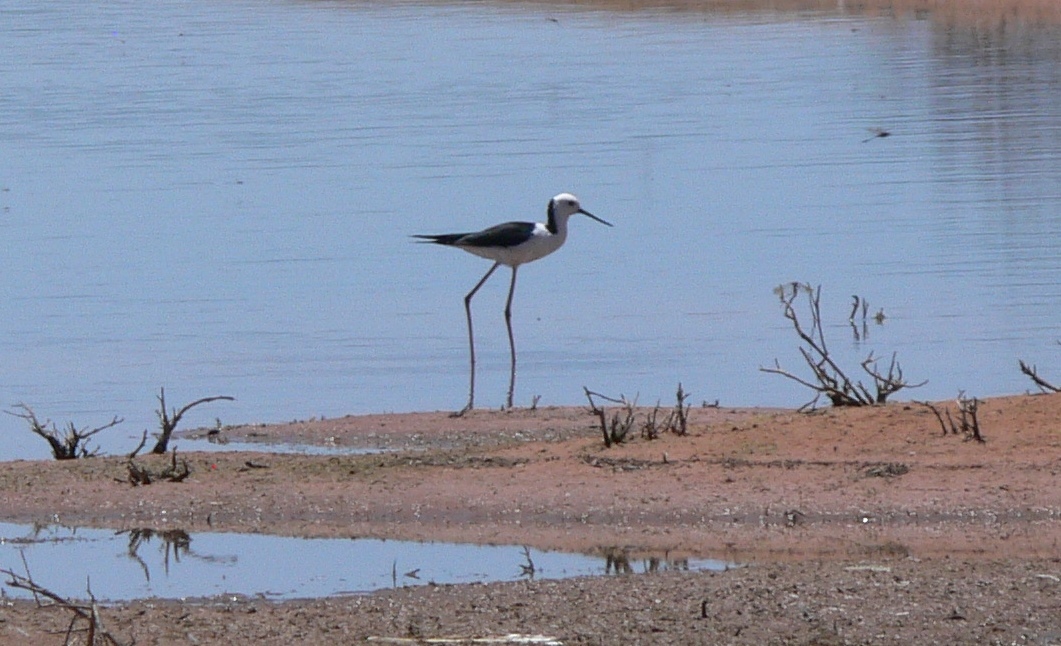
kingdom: Animalia
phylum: Chordata
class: Aves
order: Charadriiformes
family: Recurvirostridae
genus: Himantopus
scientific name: Himantopus leucocephalus
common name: White-headed stilt
